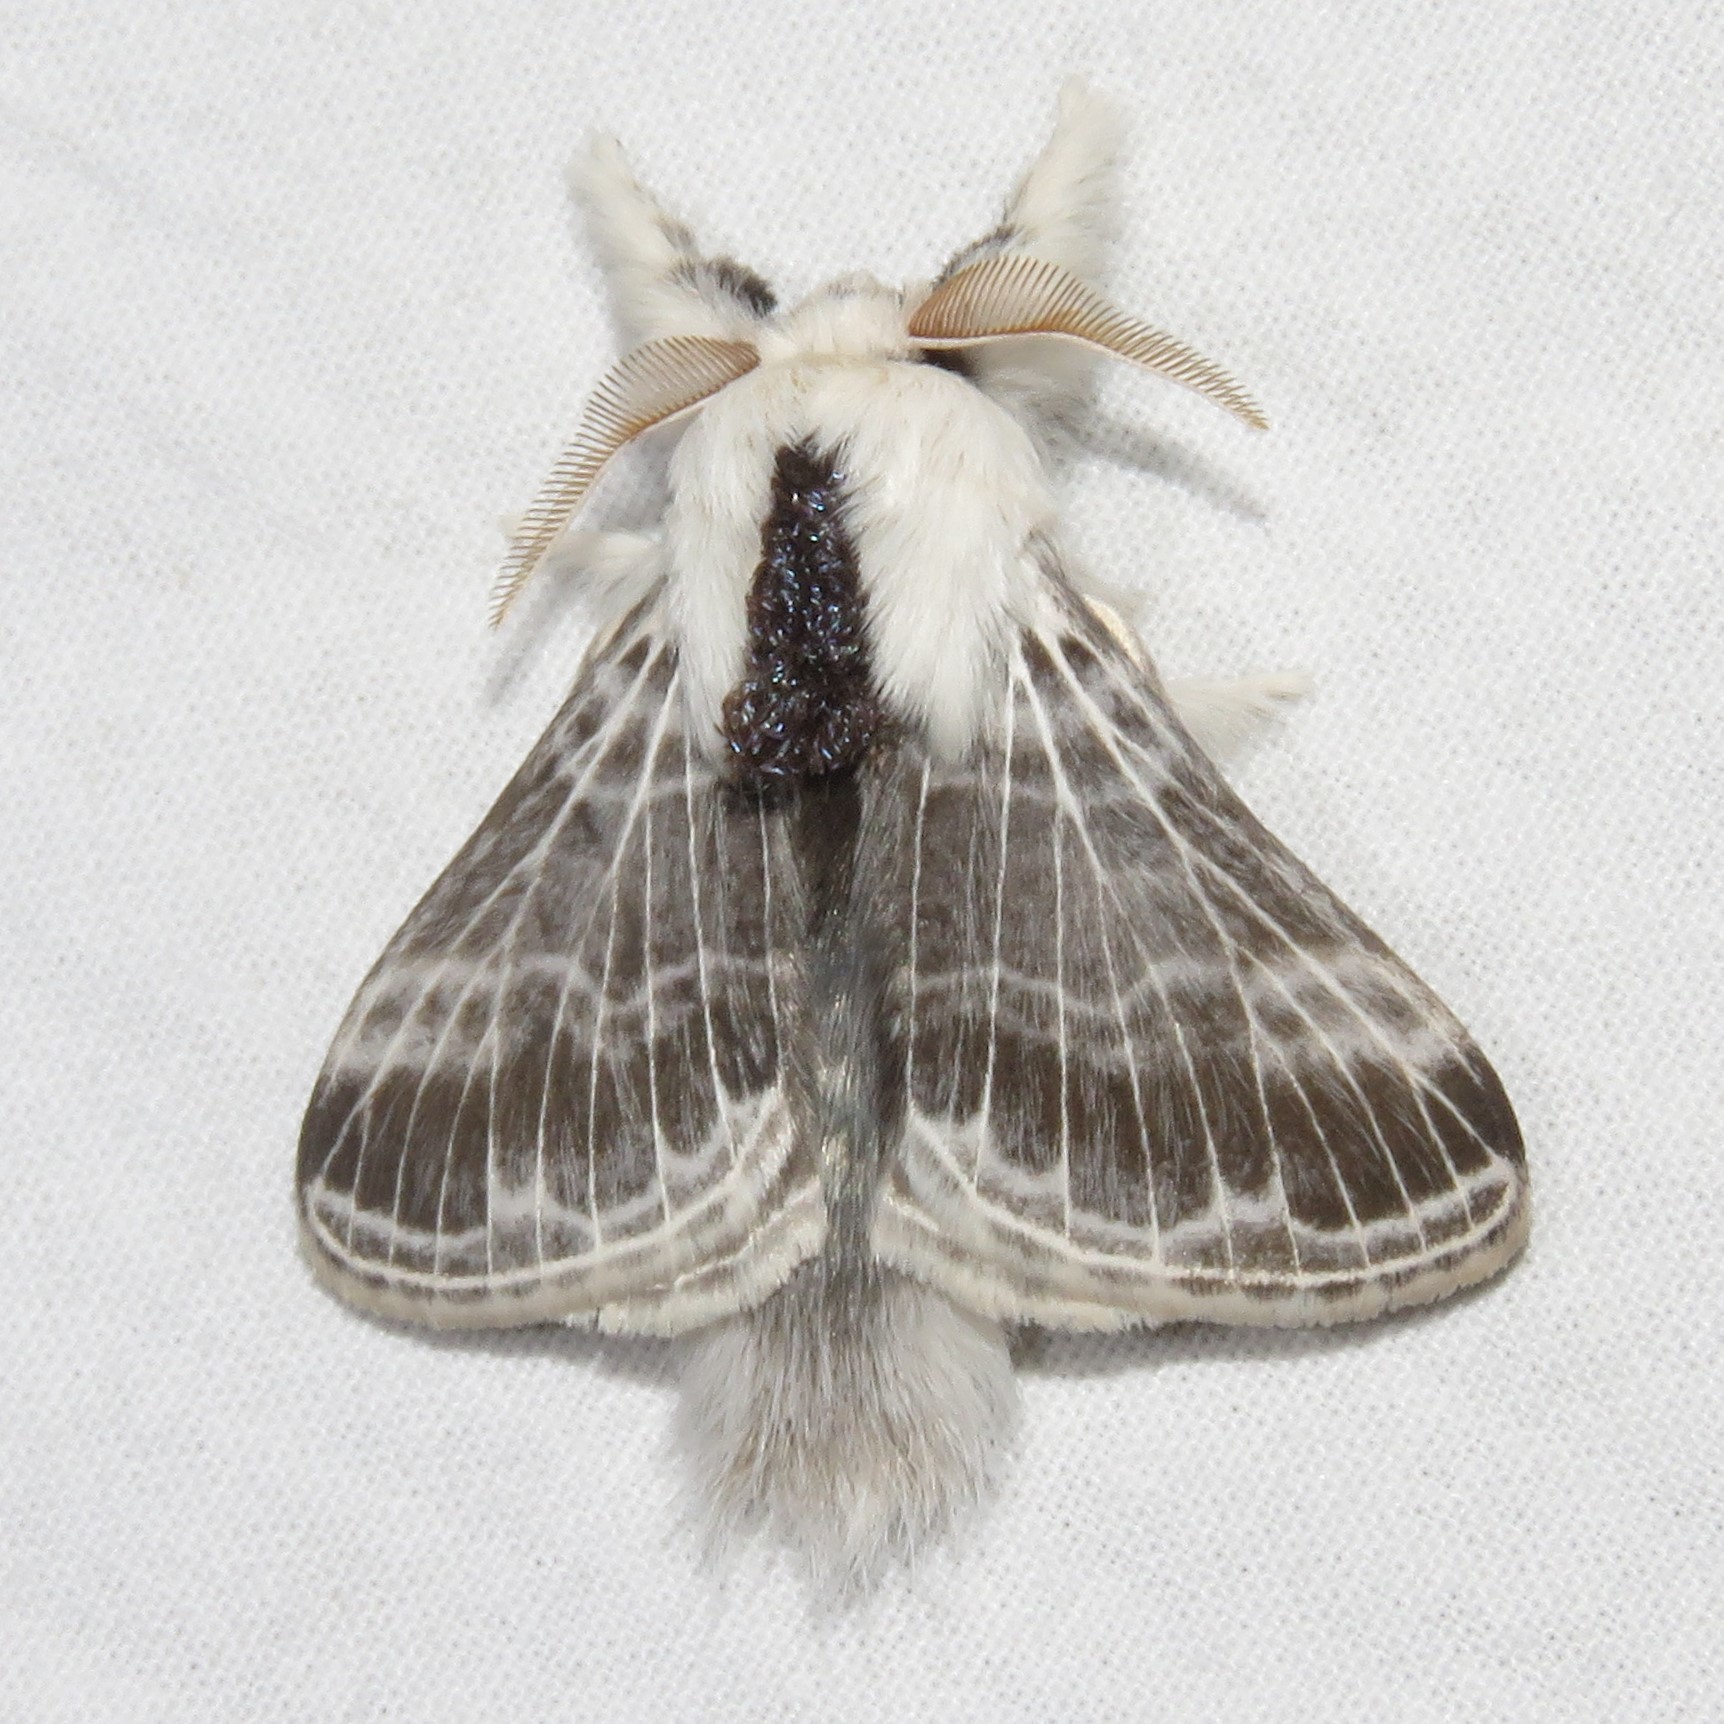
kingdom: Animalia
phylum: Arthropoda
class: Insecta
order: Lepidoptera
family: Lasiocampidae
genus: Tolype
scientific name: Tolype velleda
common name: Large tolype moth
